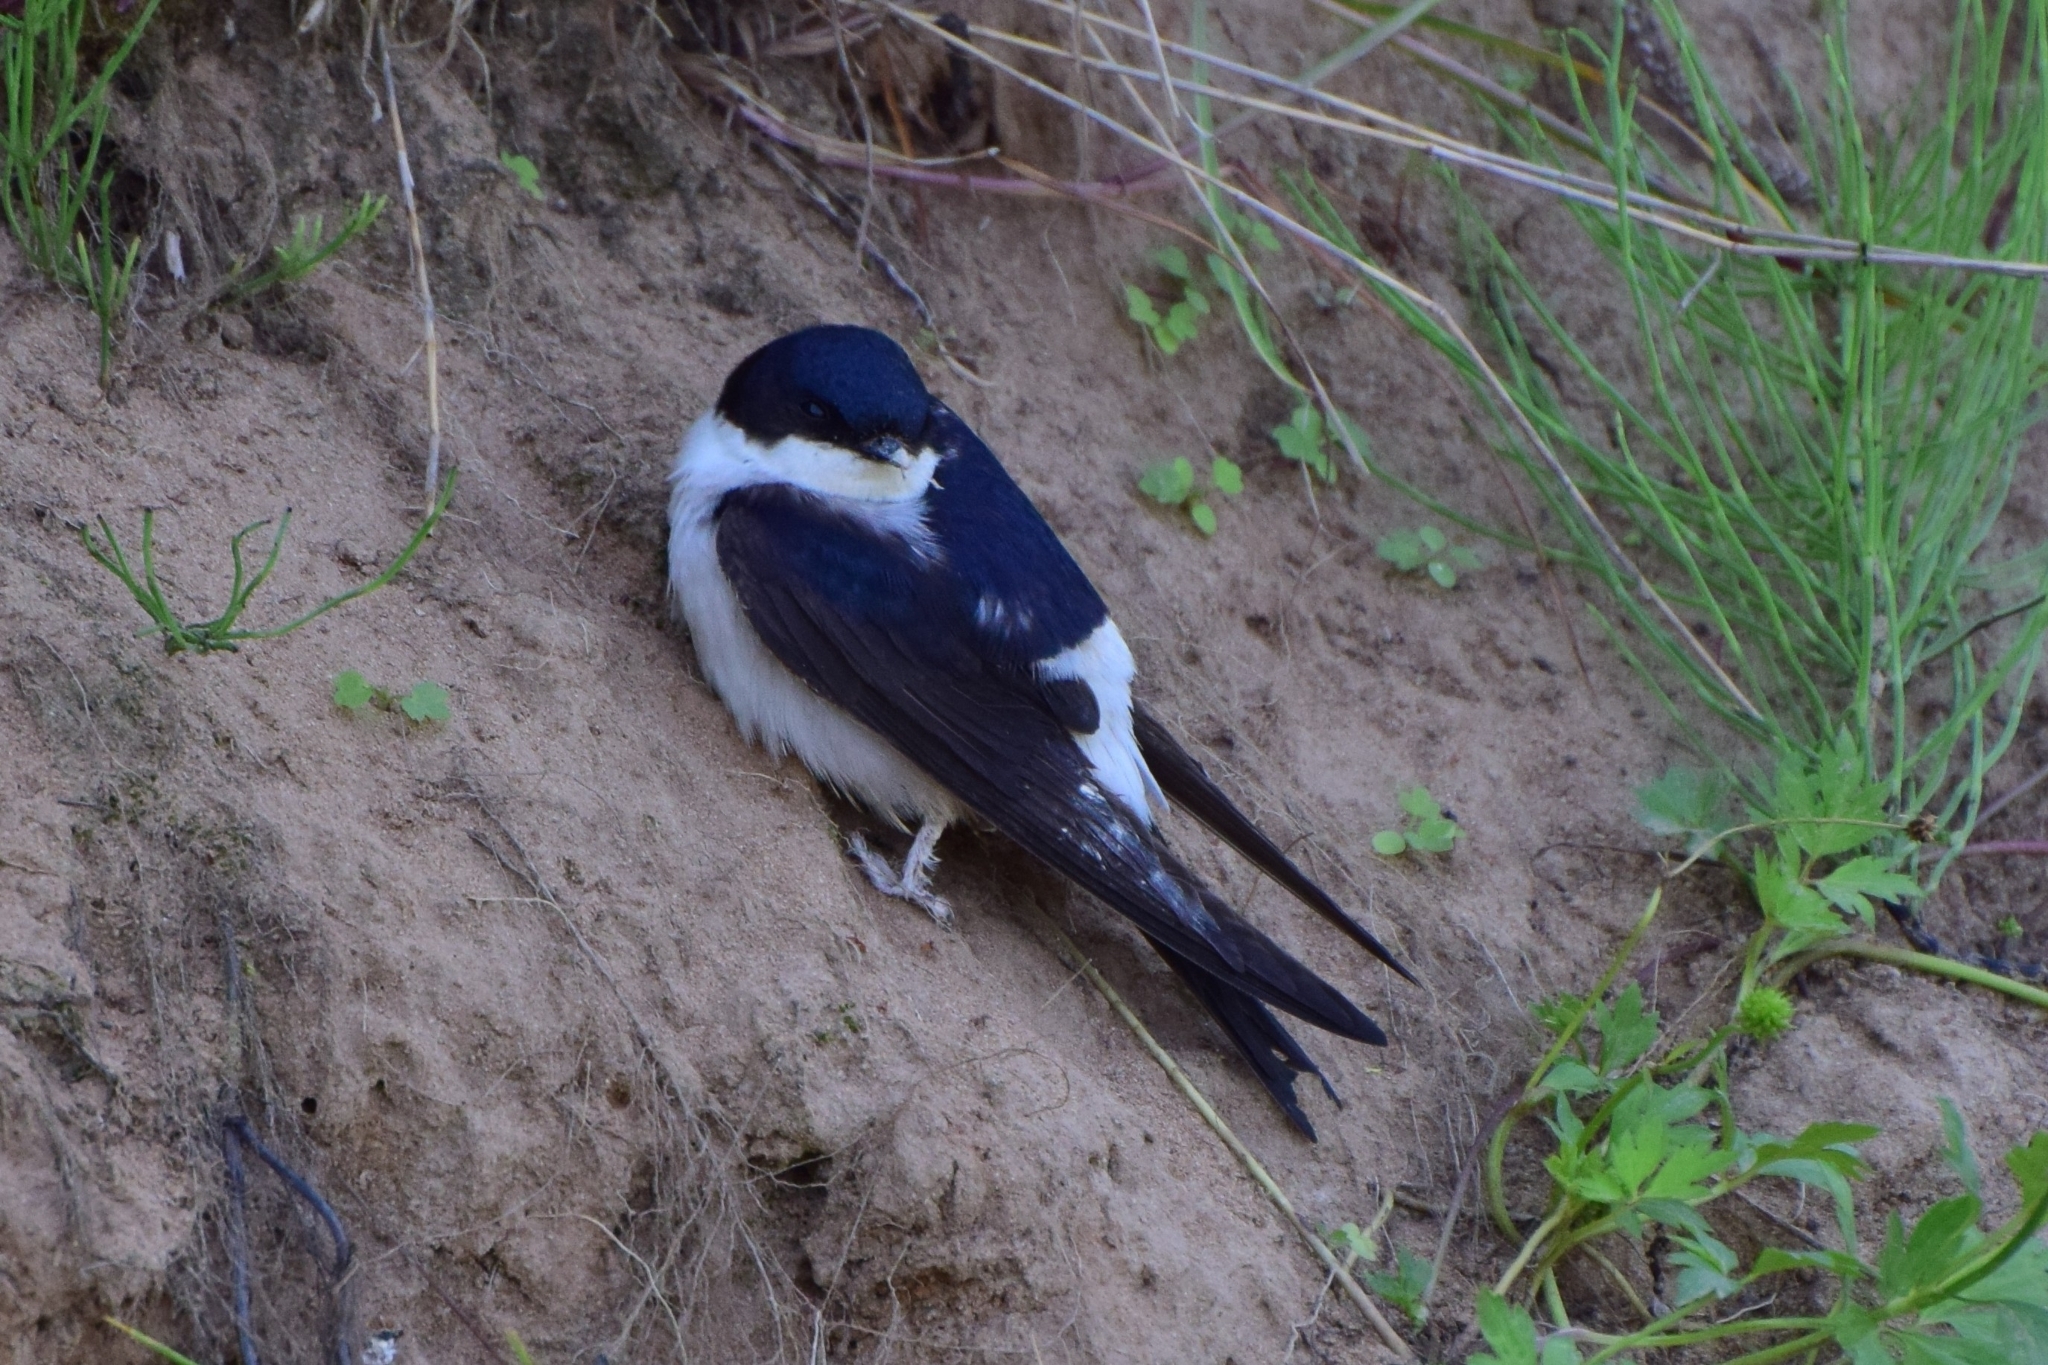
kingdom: Animalia
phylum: Chordata
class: Aves
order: Passeriformes
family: Hirundinidae
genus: Delichon
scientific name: Delichon urbicum
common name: Common house martin
